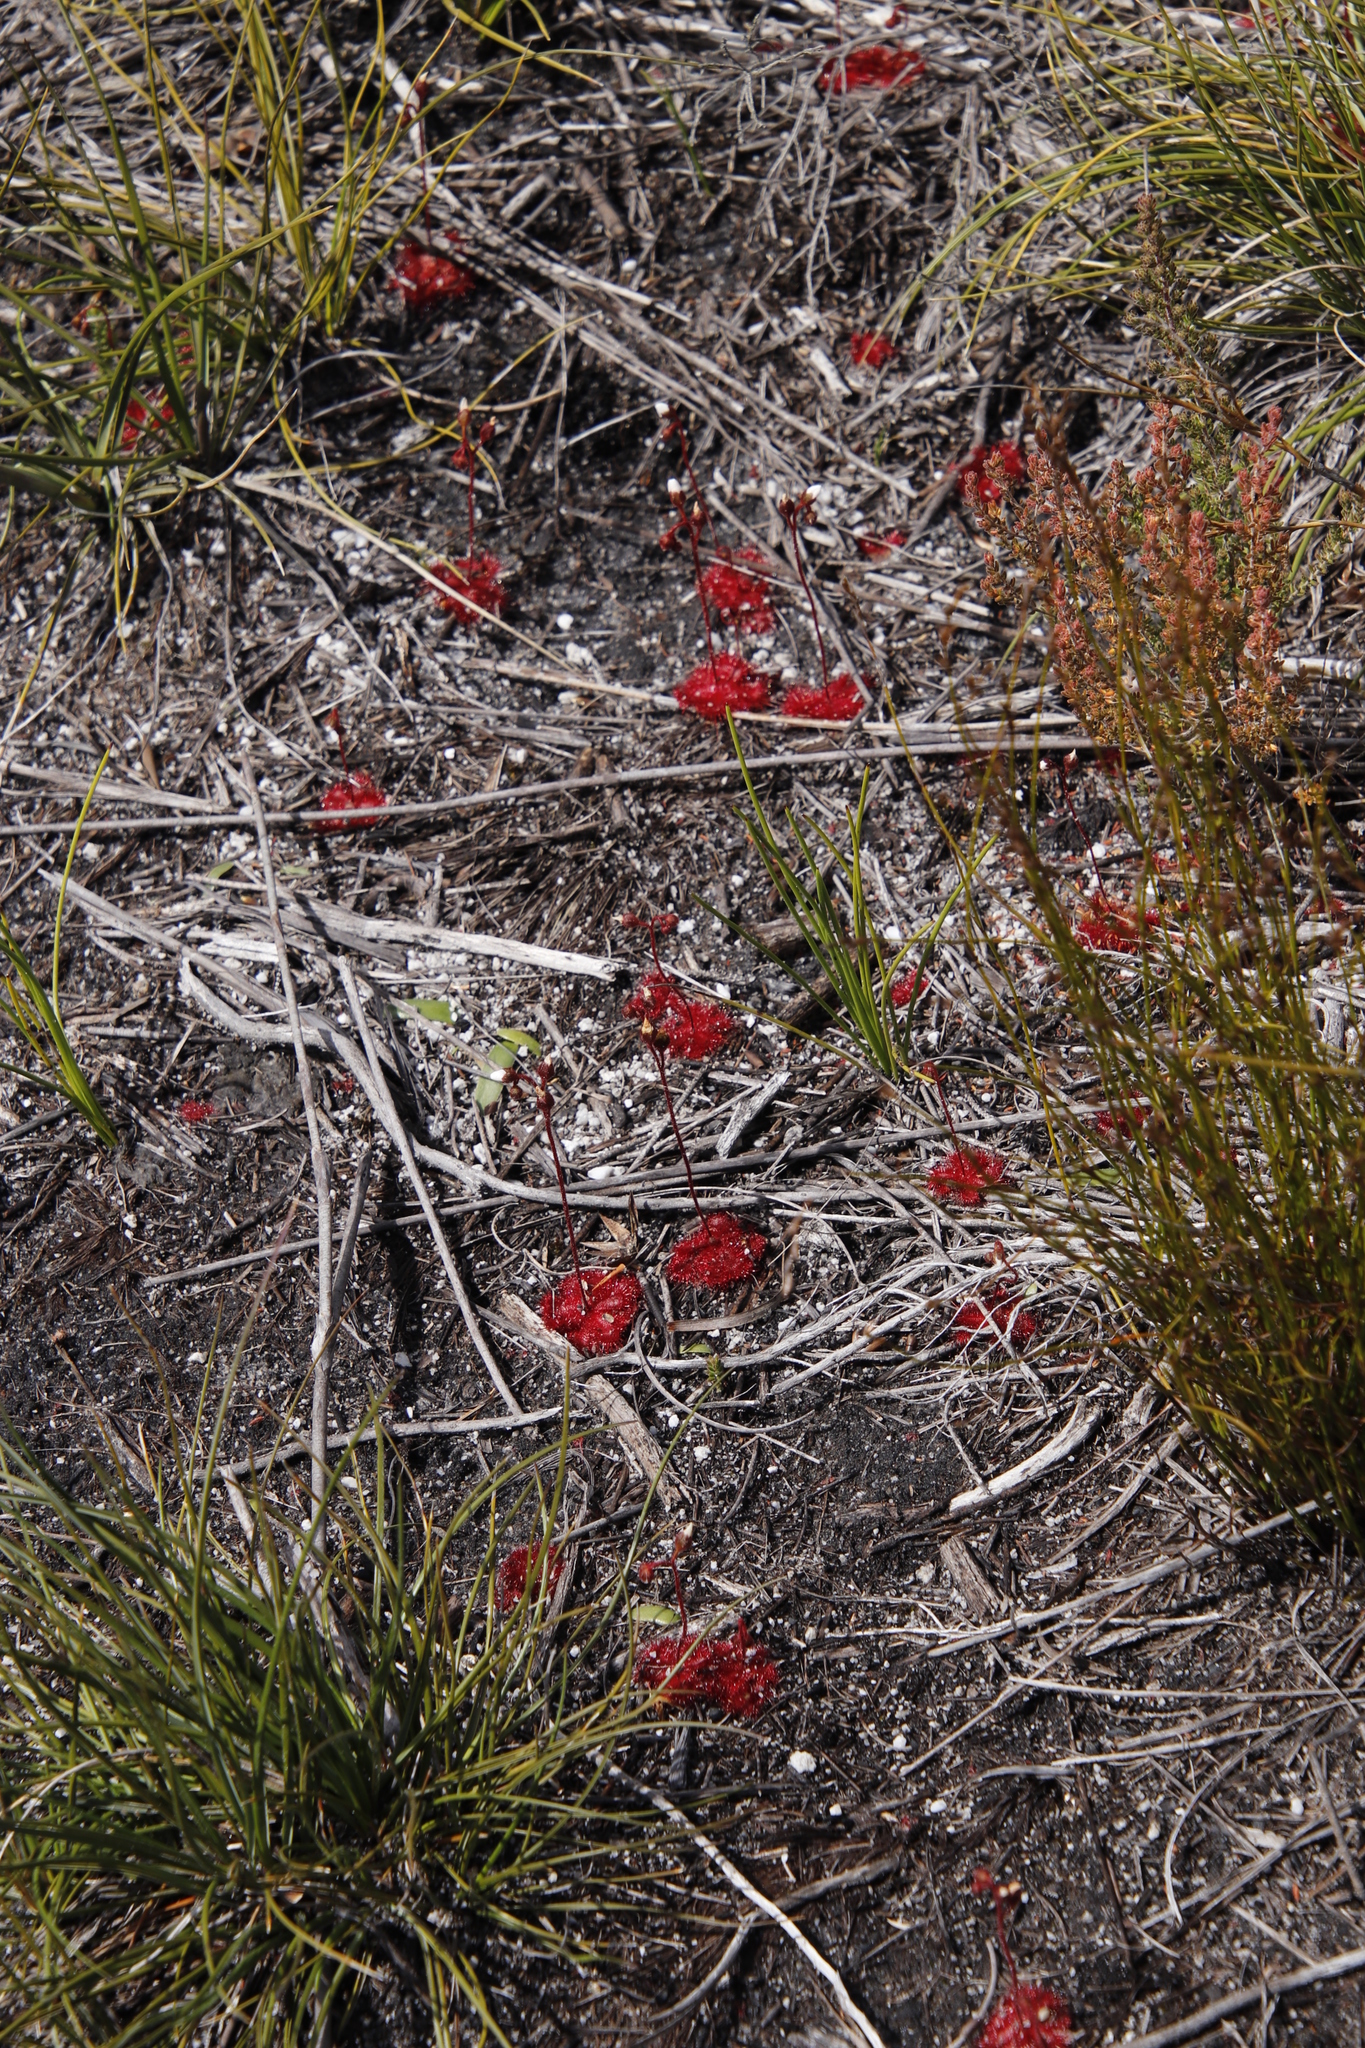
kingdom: Plantae
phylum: Tracheophyta
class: Magnoliopsida
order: Caryophyllales
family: Droseraceae
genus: Drosera
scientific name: Drosera trinervia
